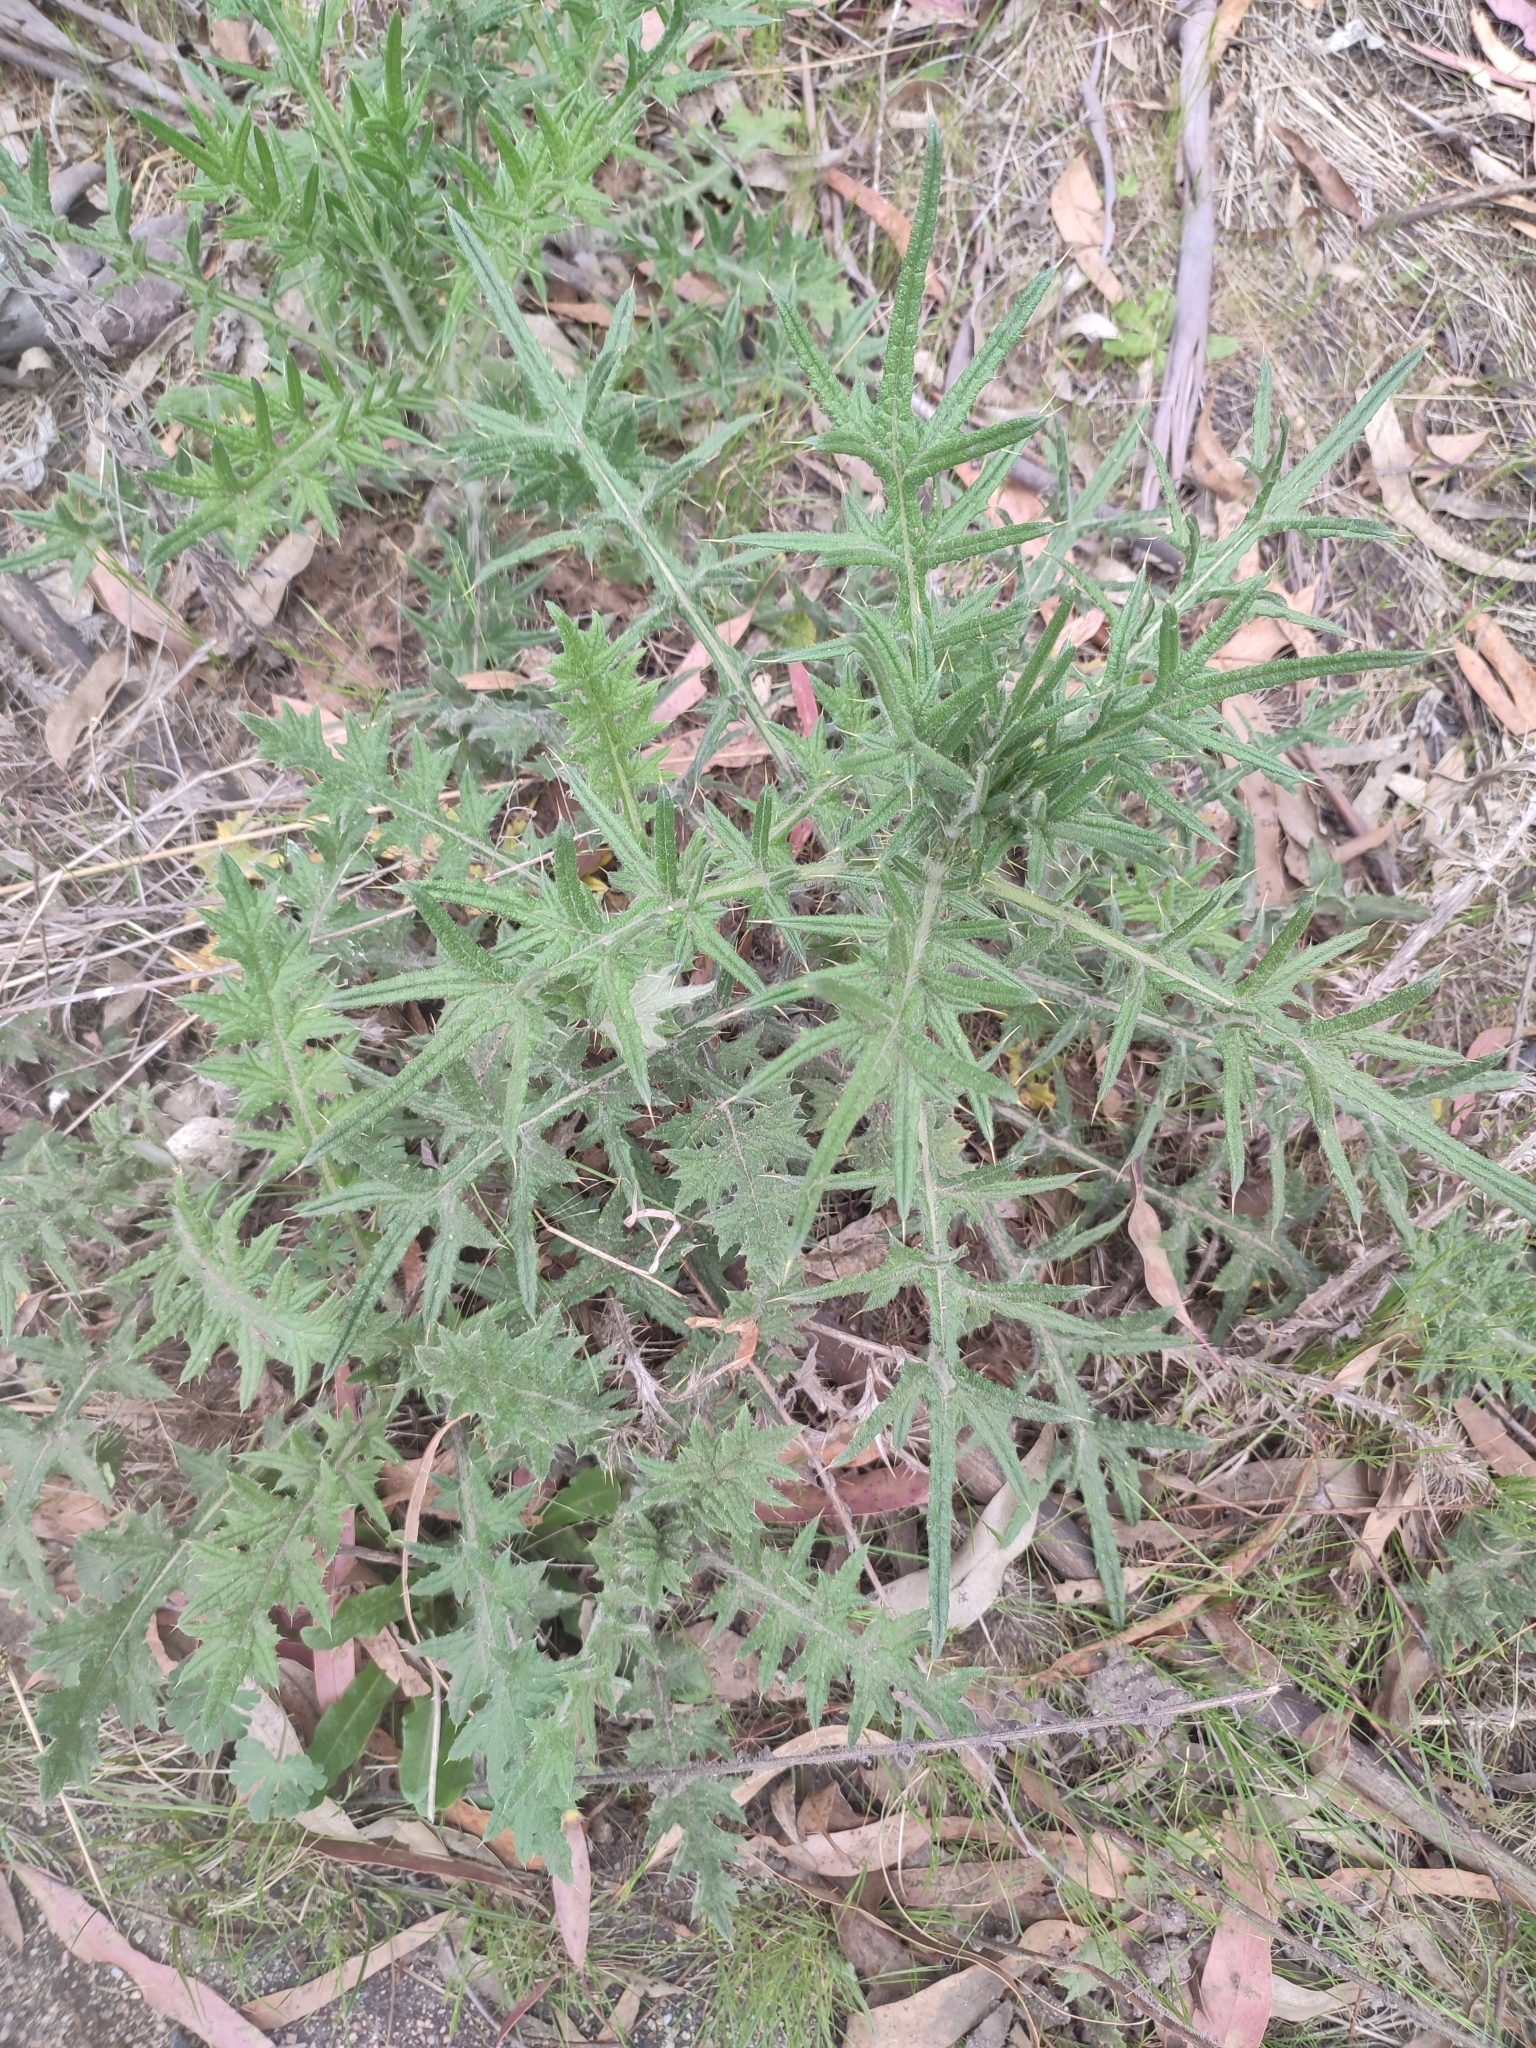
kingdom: Plantae
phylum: Tracheophyta
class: Magnoliopsida
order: Asterales
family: Asteraceae
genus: Cirsium
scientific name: Cirsium vulgare
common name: Bull thistle
